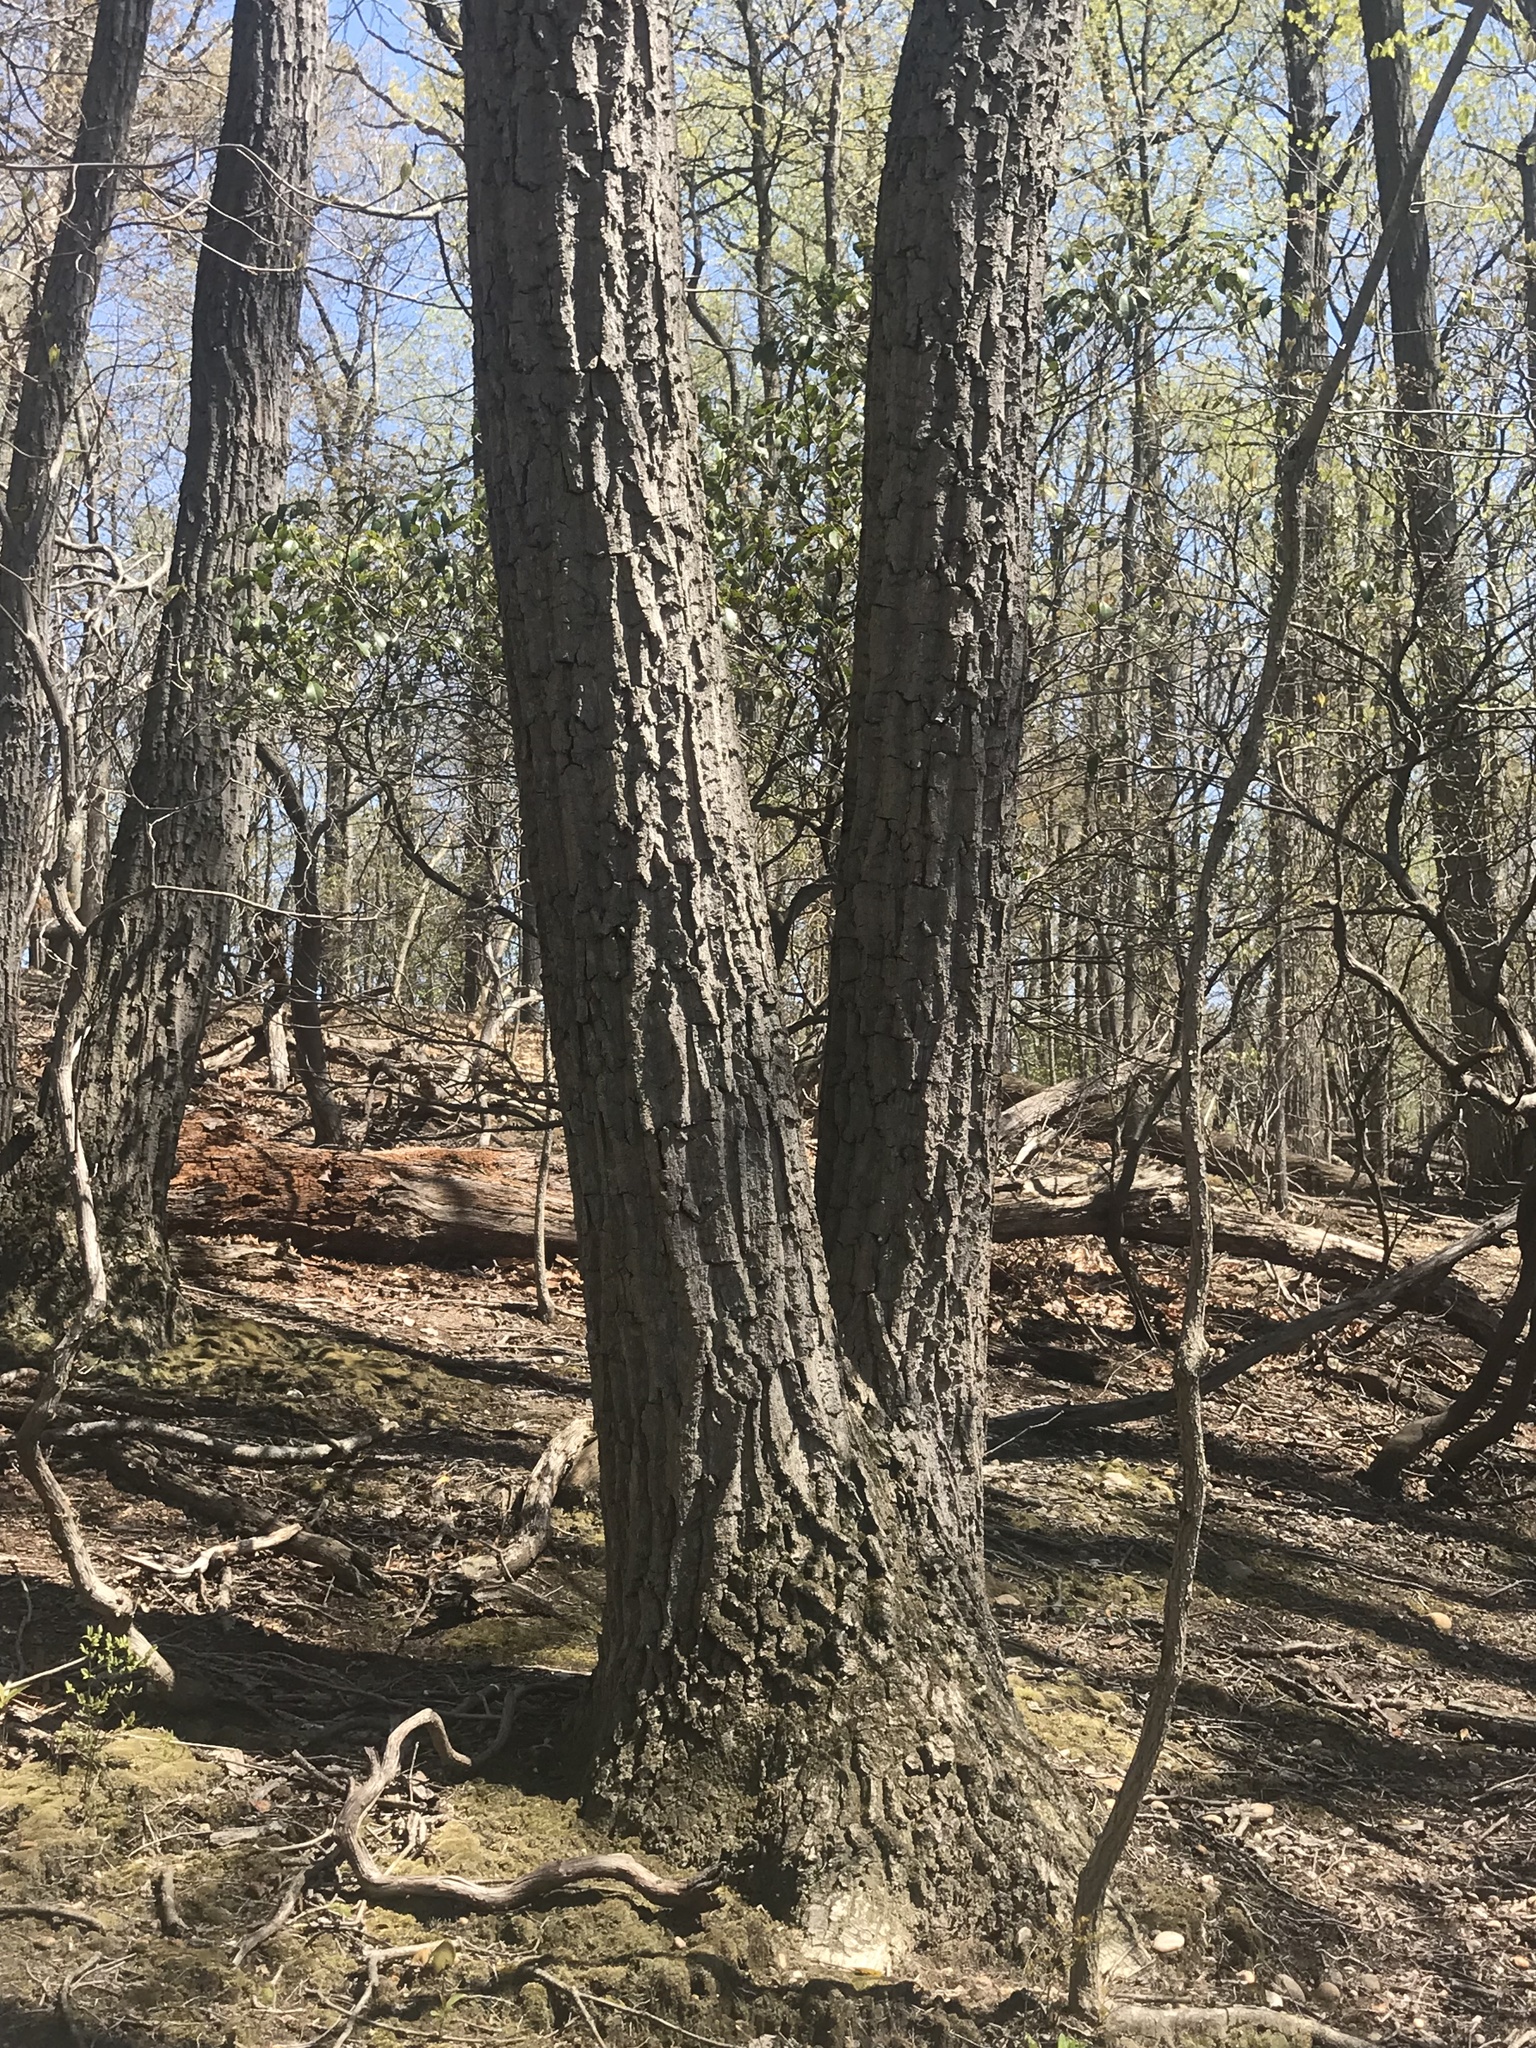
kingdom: Plantae
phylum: Tracheophyta
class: Magnoliopsida
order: Fagales
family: Fagaceae
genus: Quercus
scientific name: Quercus montana
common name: Chestnut oak
